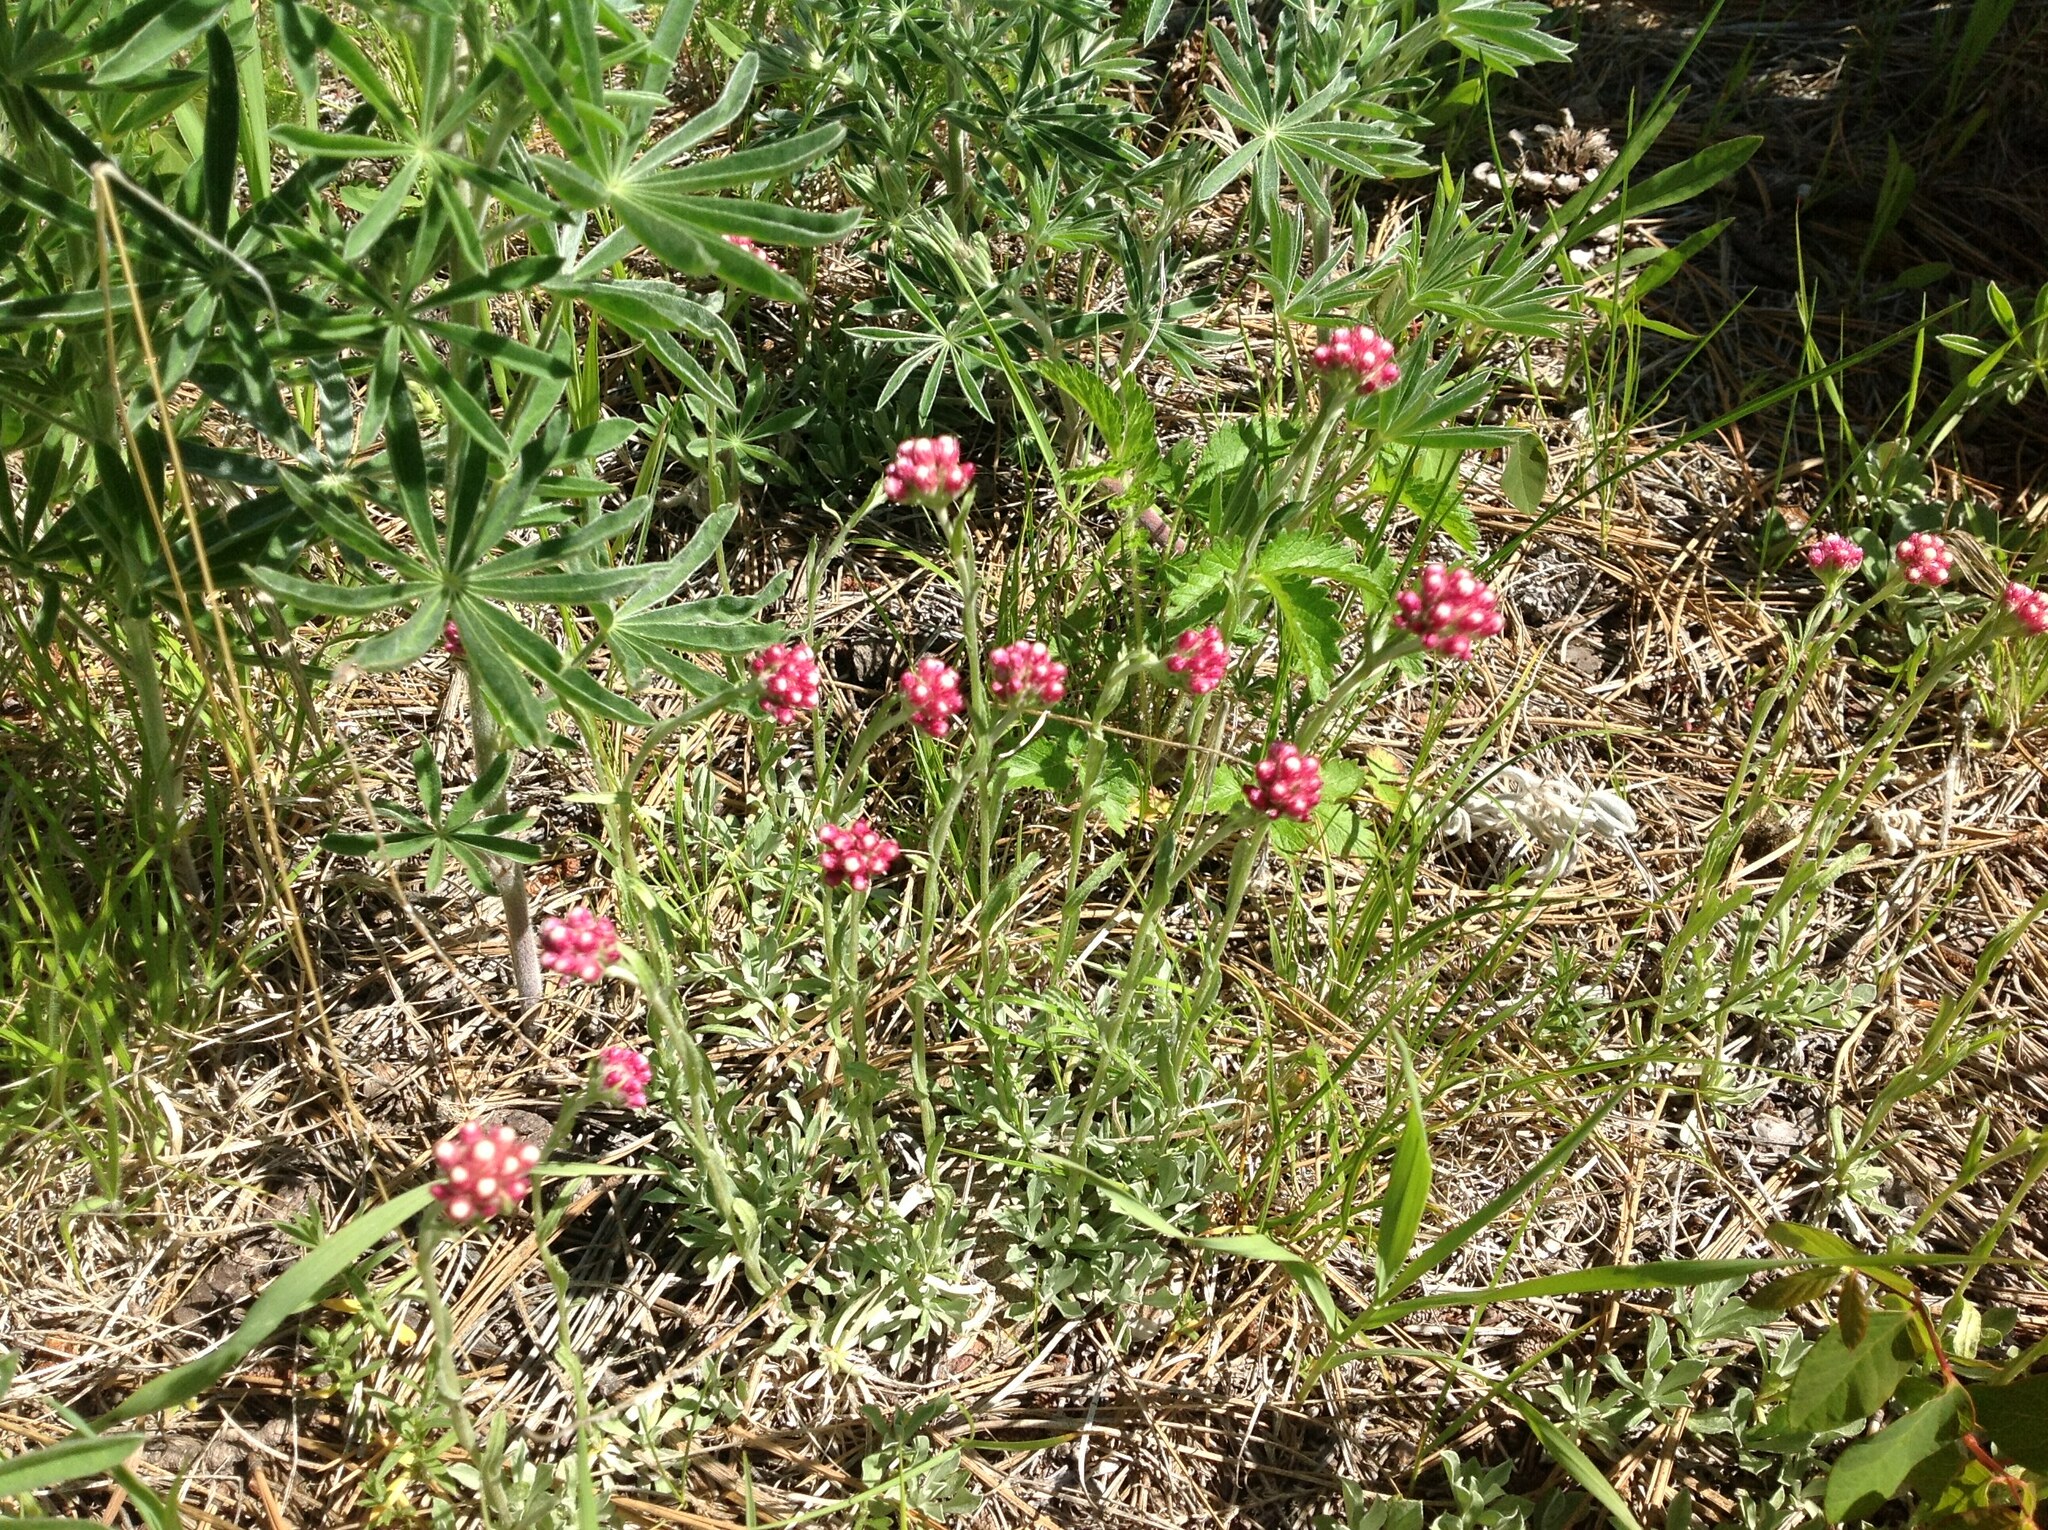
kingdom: Plantae
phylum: Tracheophyta
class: Magnoliopsida
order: Asterales
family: Asteraceae
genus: Antennaria
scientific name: Antennaria rosea
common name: Rosy pussytoes
